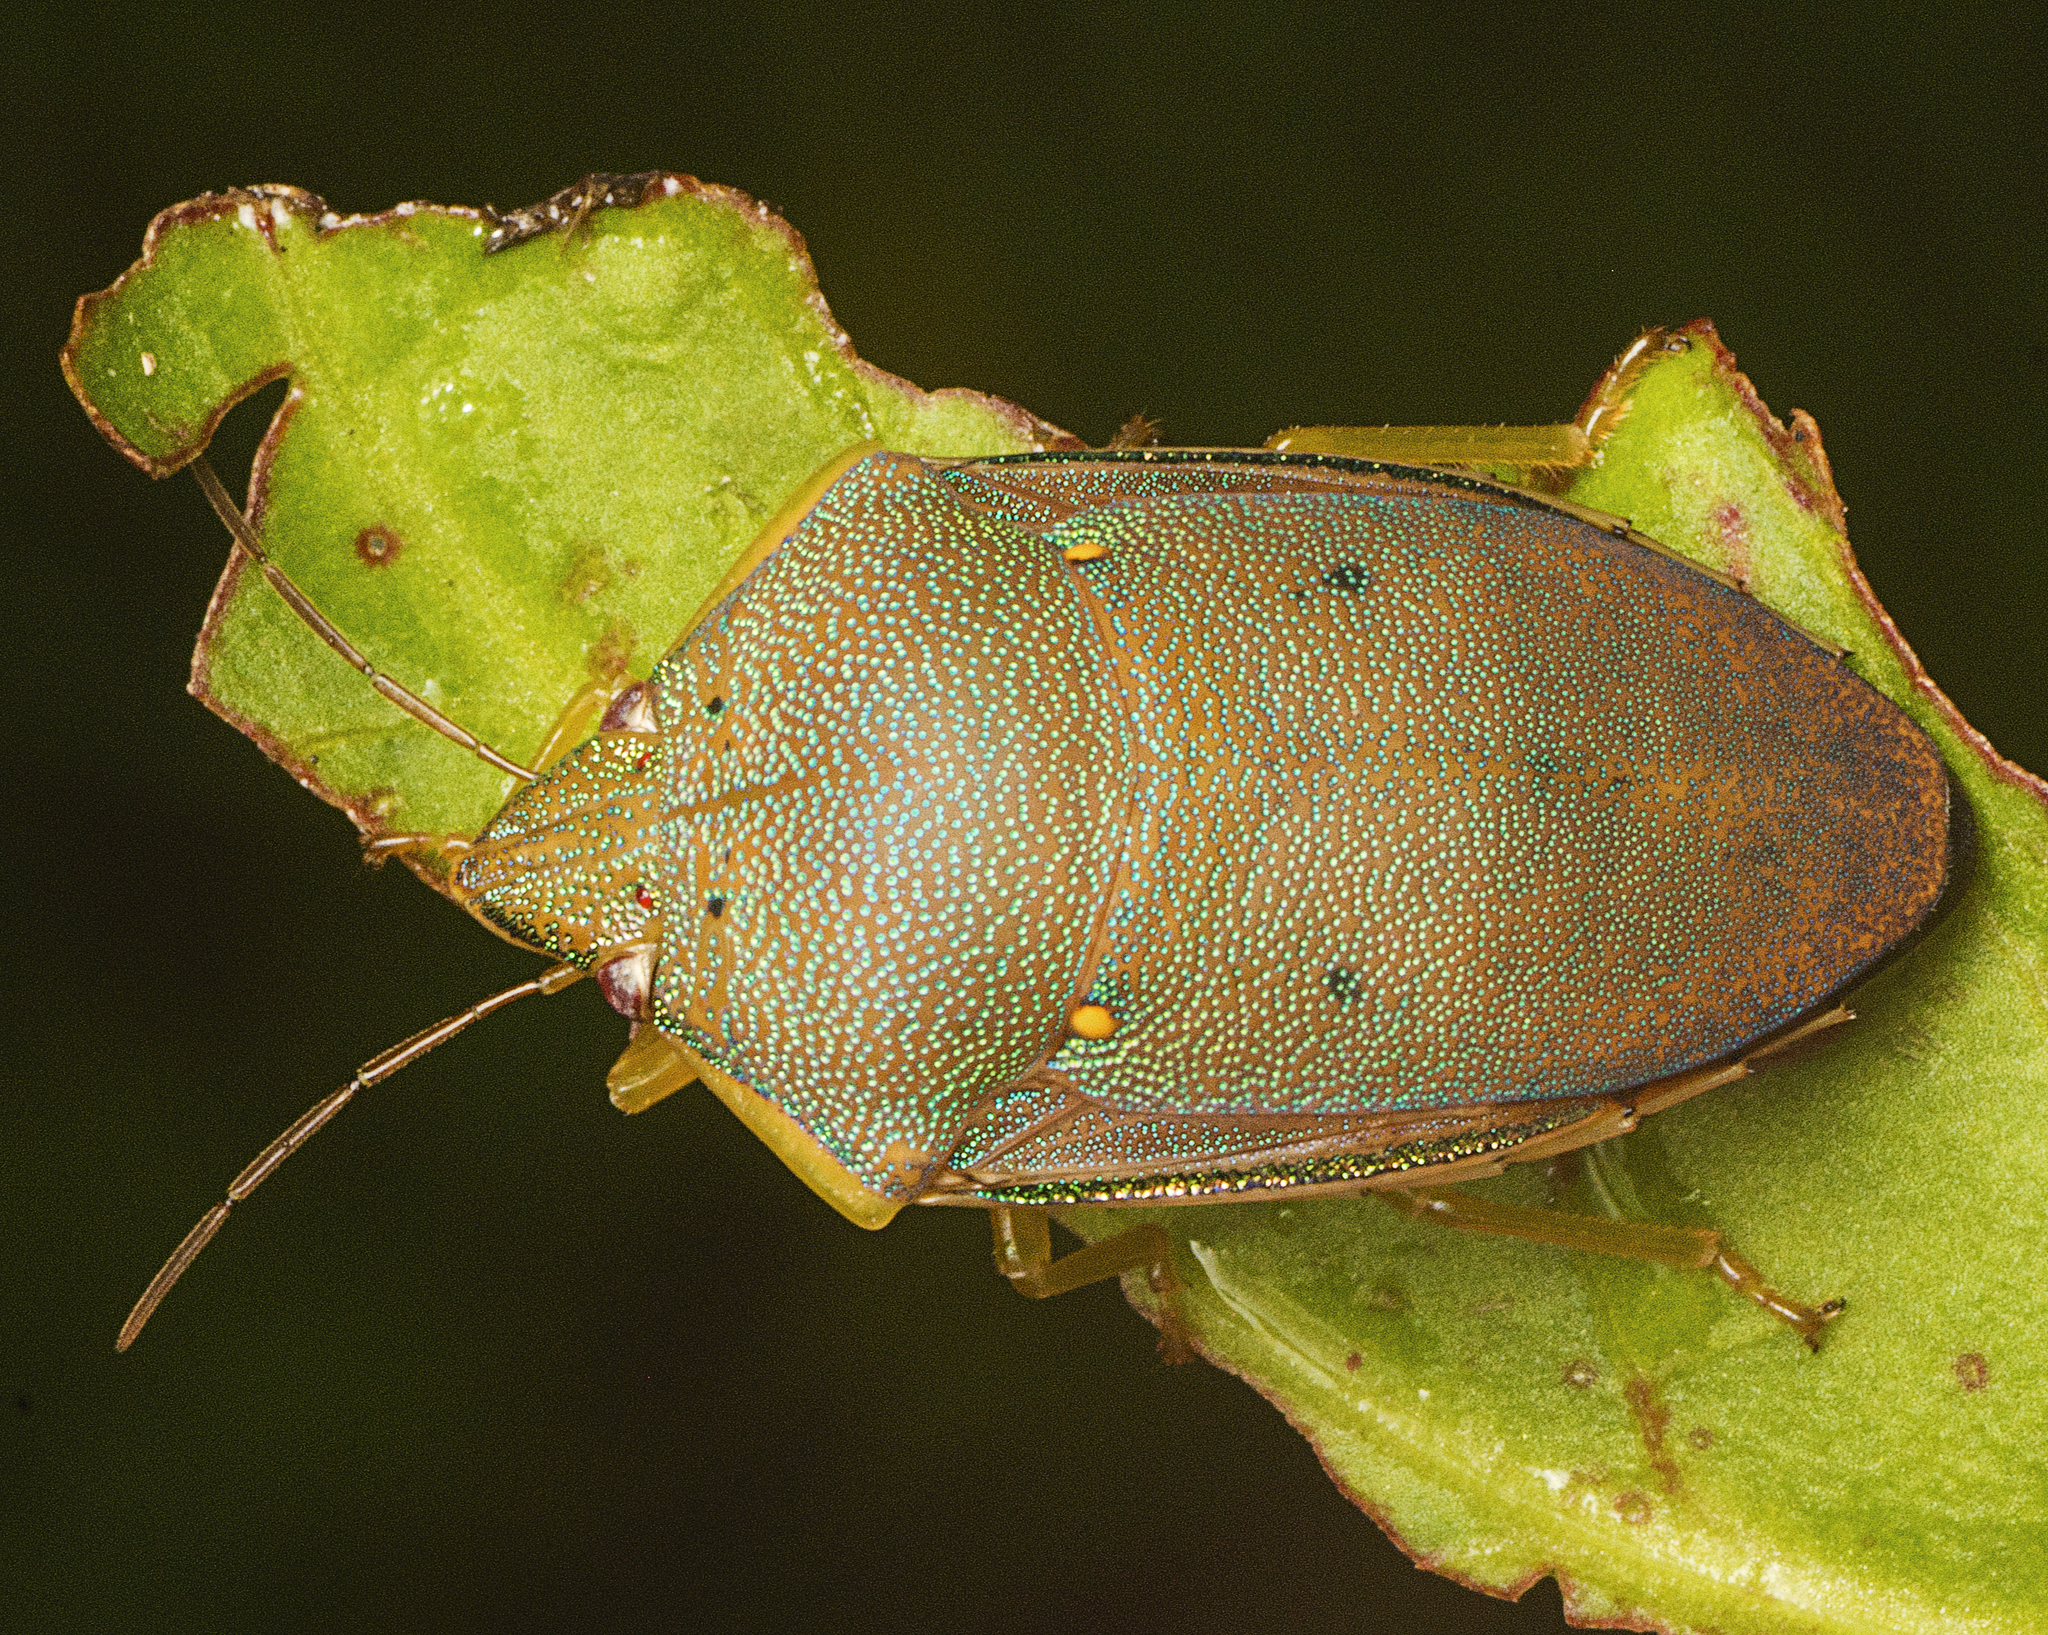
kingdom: Animalia
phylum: Arthropoda
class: Insecta
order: Hemiptera
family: Pentatomidae
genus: Coleotichus
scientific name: Coleotichus excellens
